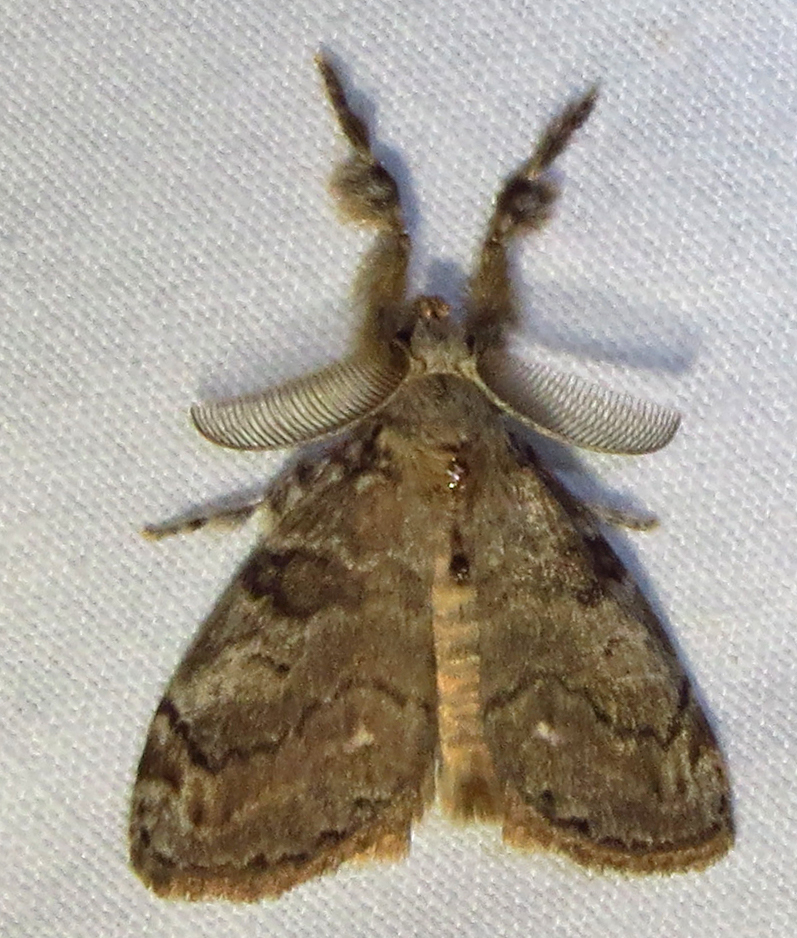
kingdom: Animalia
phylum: Arthropoda
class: Insecta
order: Lepidoptera
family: Erebidae
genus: Orgyia
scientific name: Orgyia leucostigma
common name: White-marked tussock moth
